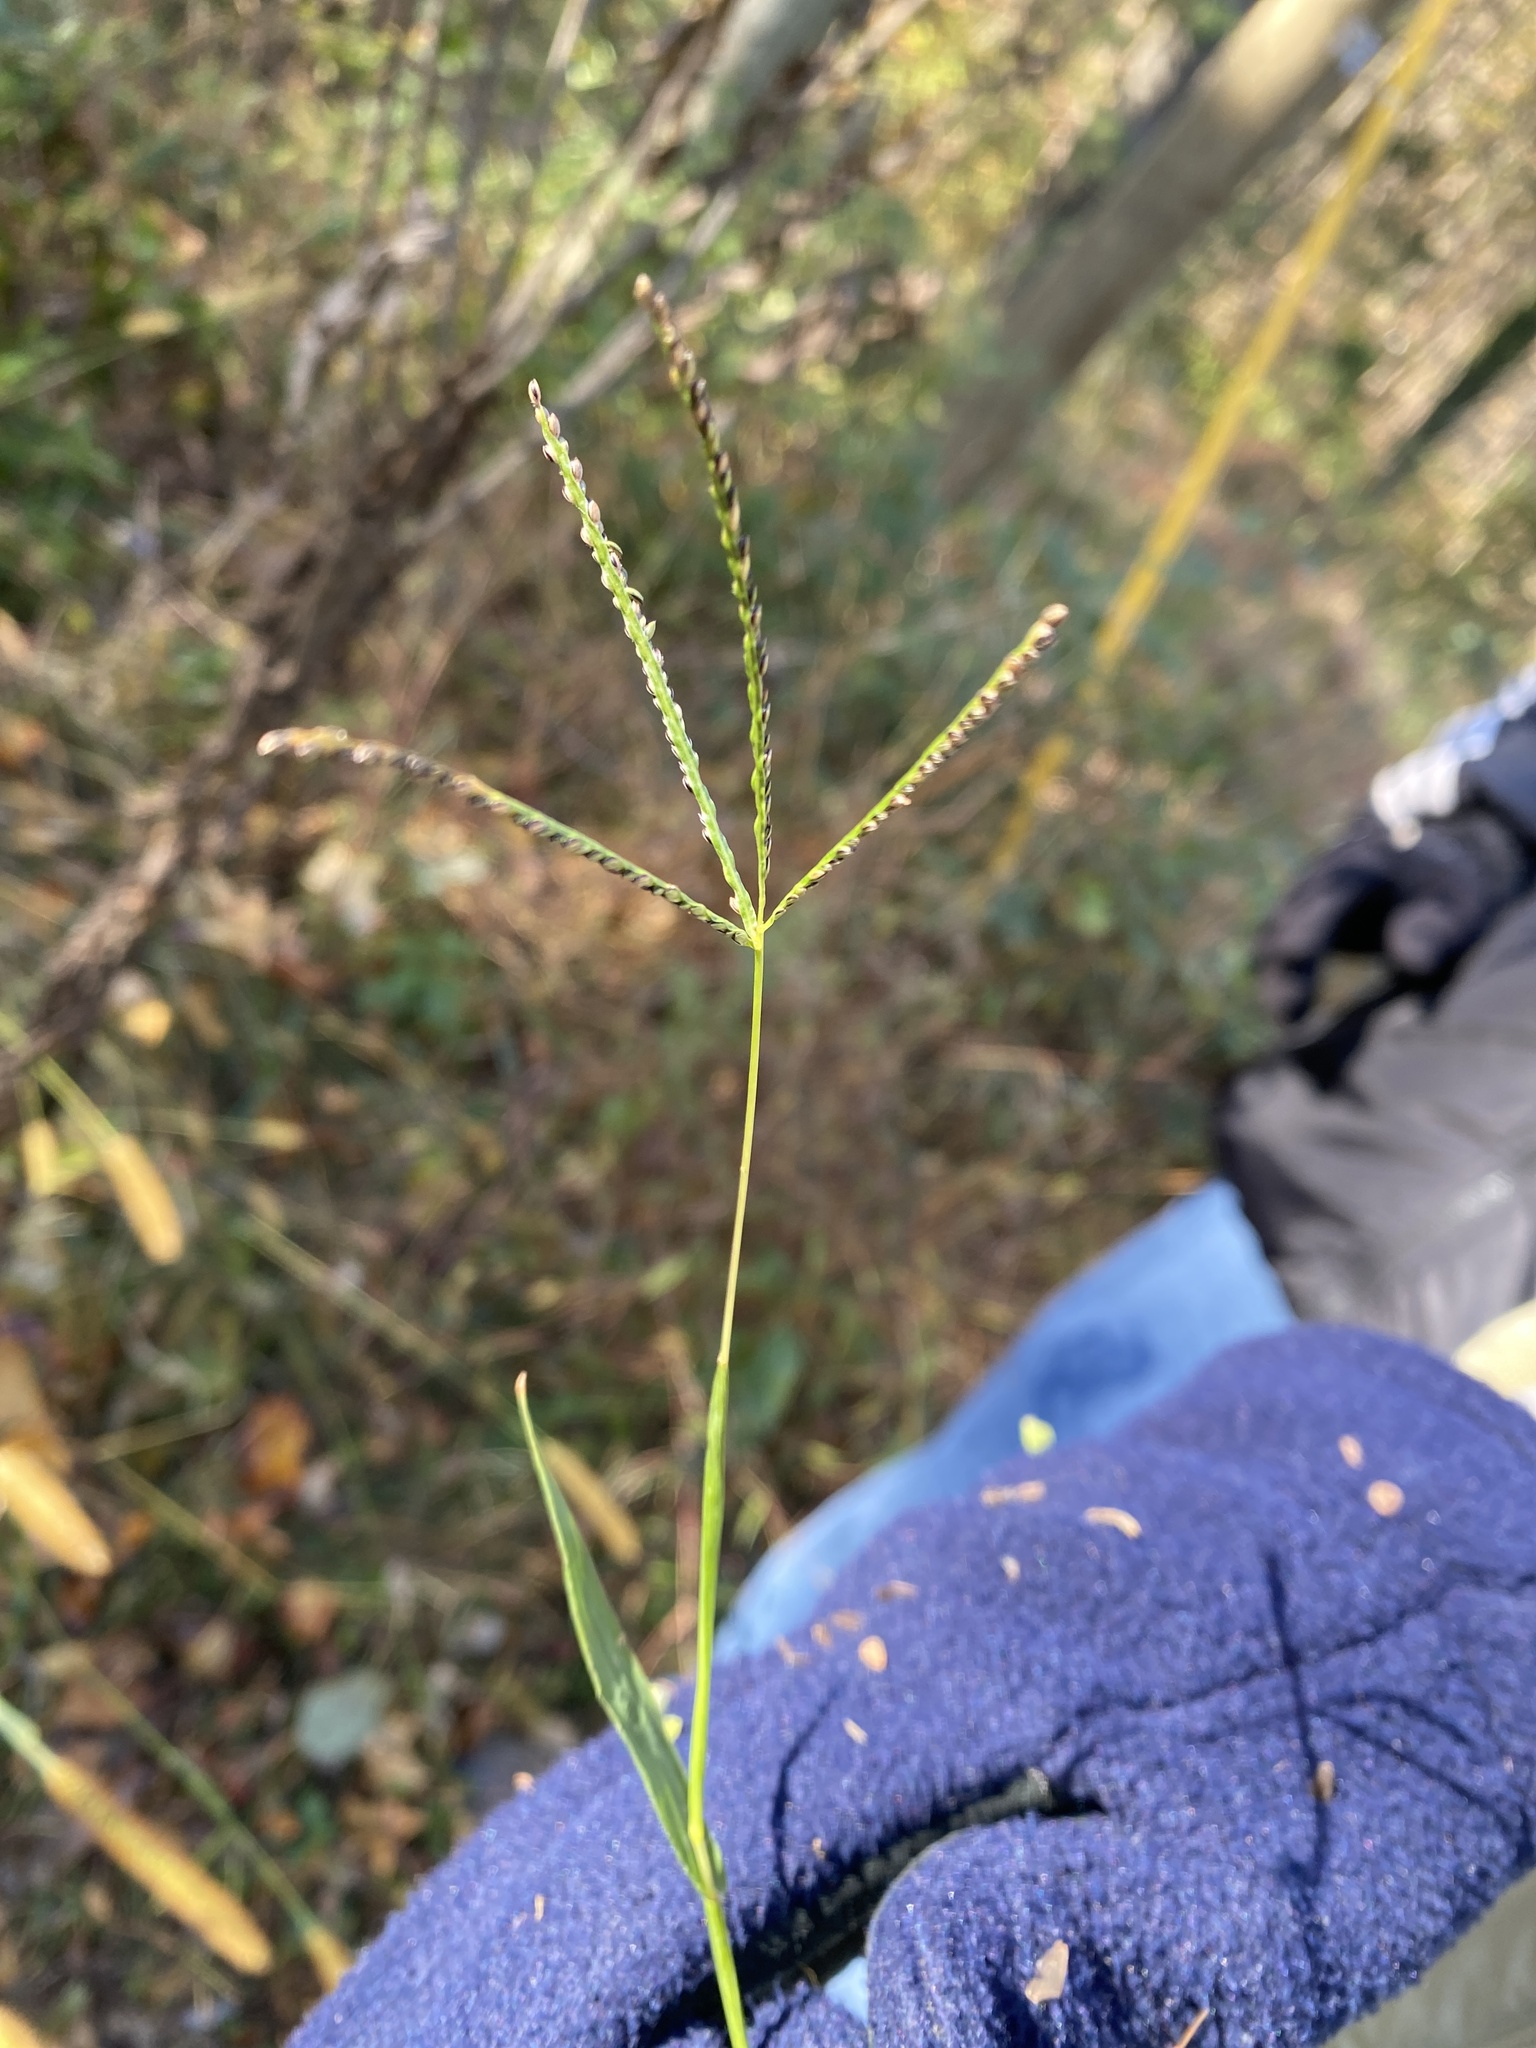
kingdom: Plantae
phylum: Tracheophyta
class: Liliopsida
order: Poales
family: Poaceae
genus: Cynodon
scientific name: Cynodon dactylon
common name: Bermuda grass
